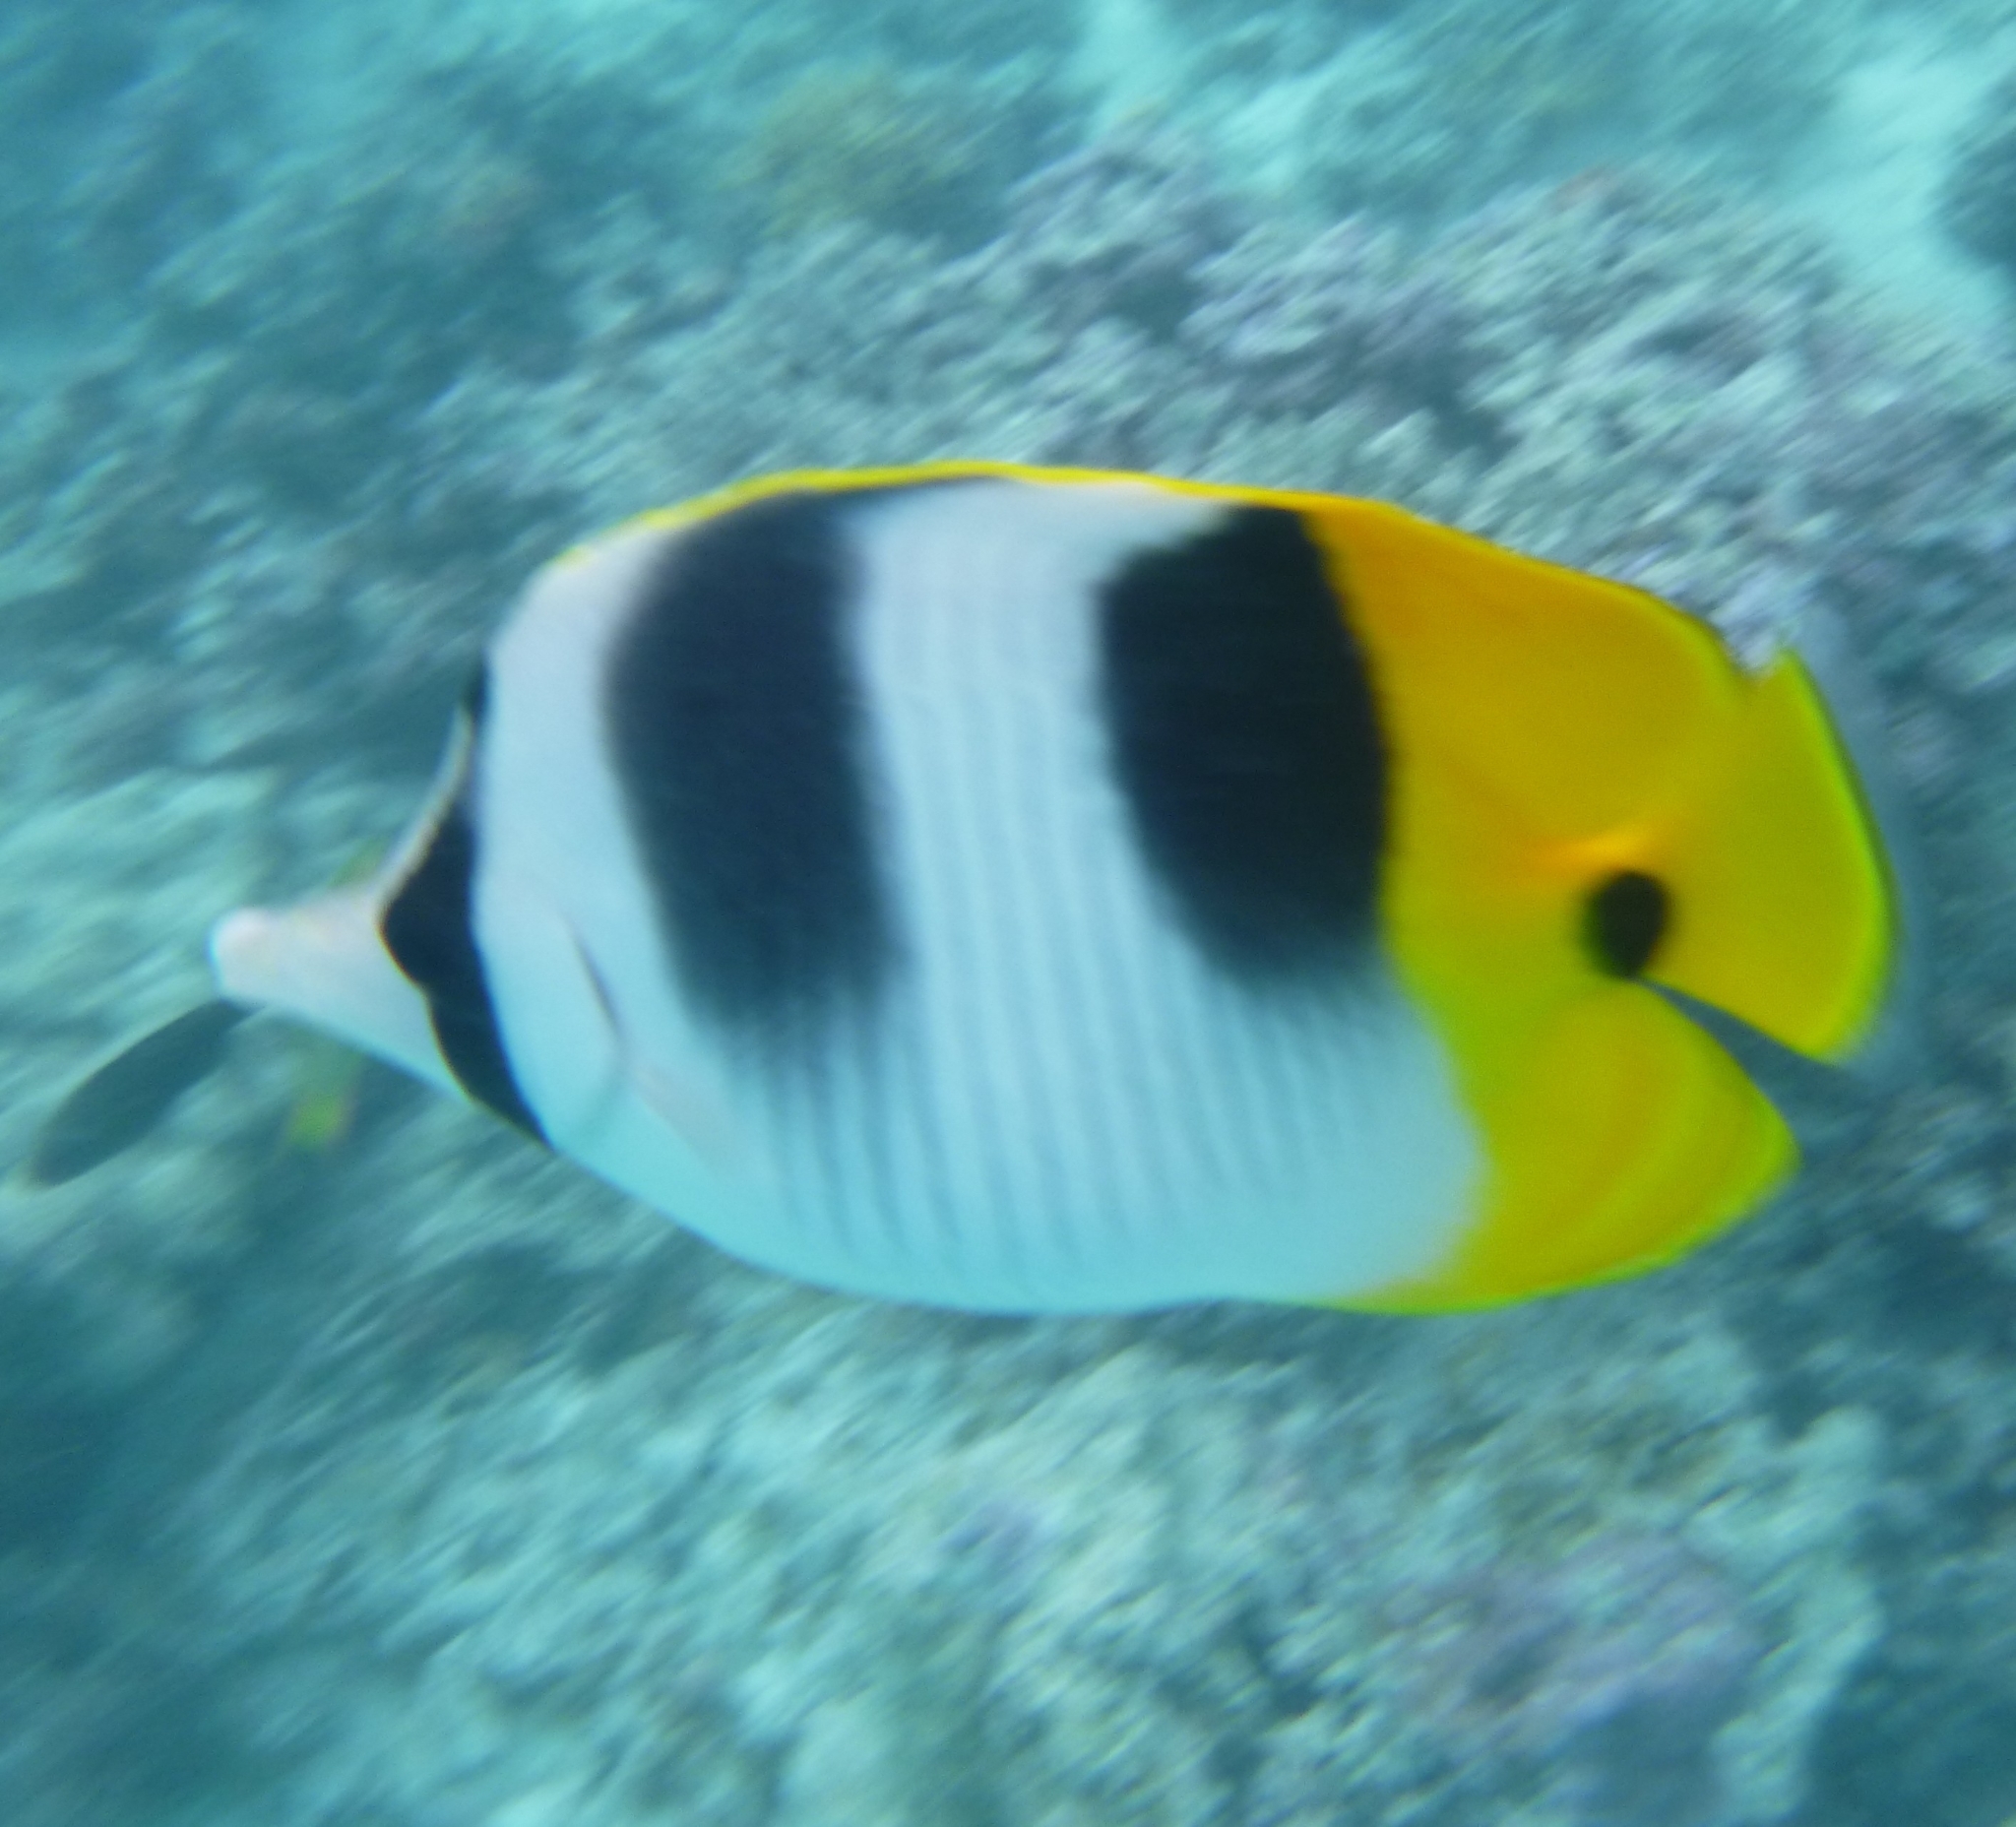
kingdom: Animalia
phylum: Chordata
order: Perciformes
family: Chaetodontidae
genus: Chaetodon
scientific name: Chaetodon ulietensis
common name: Pacific double-saddle butterflyfish
